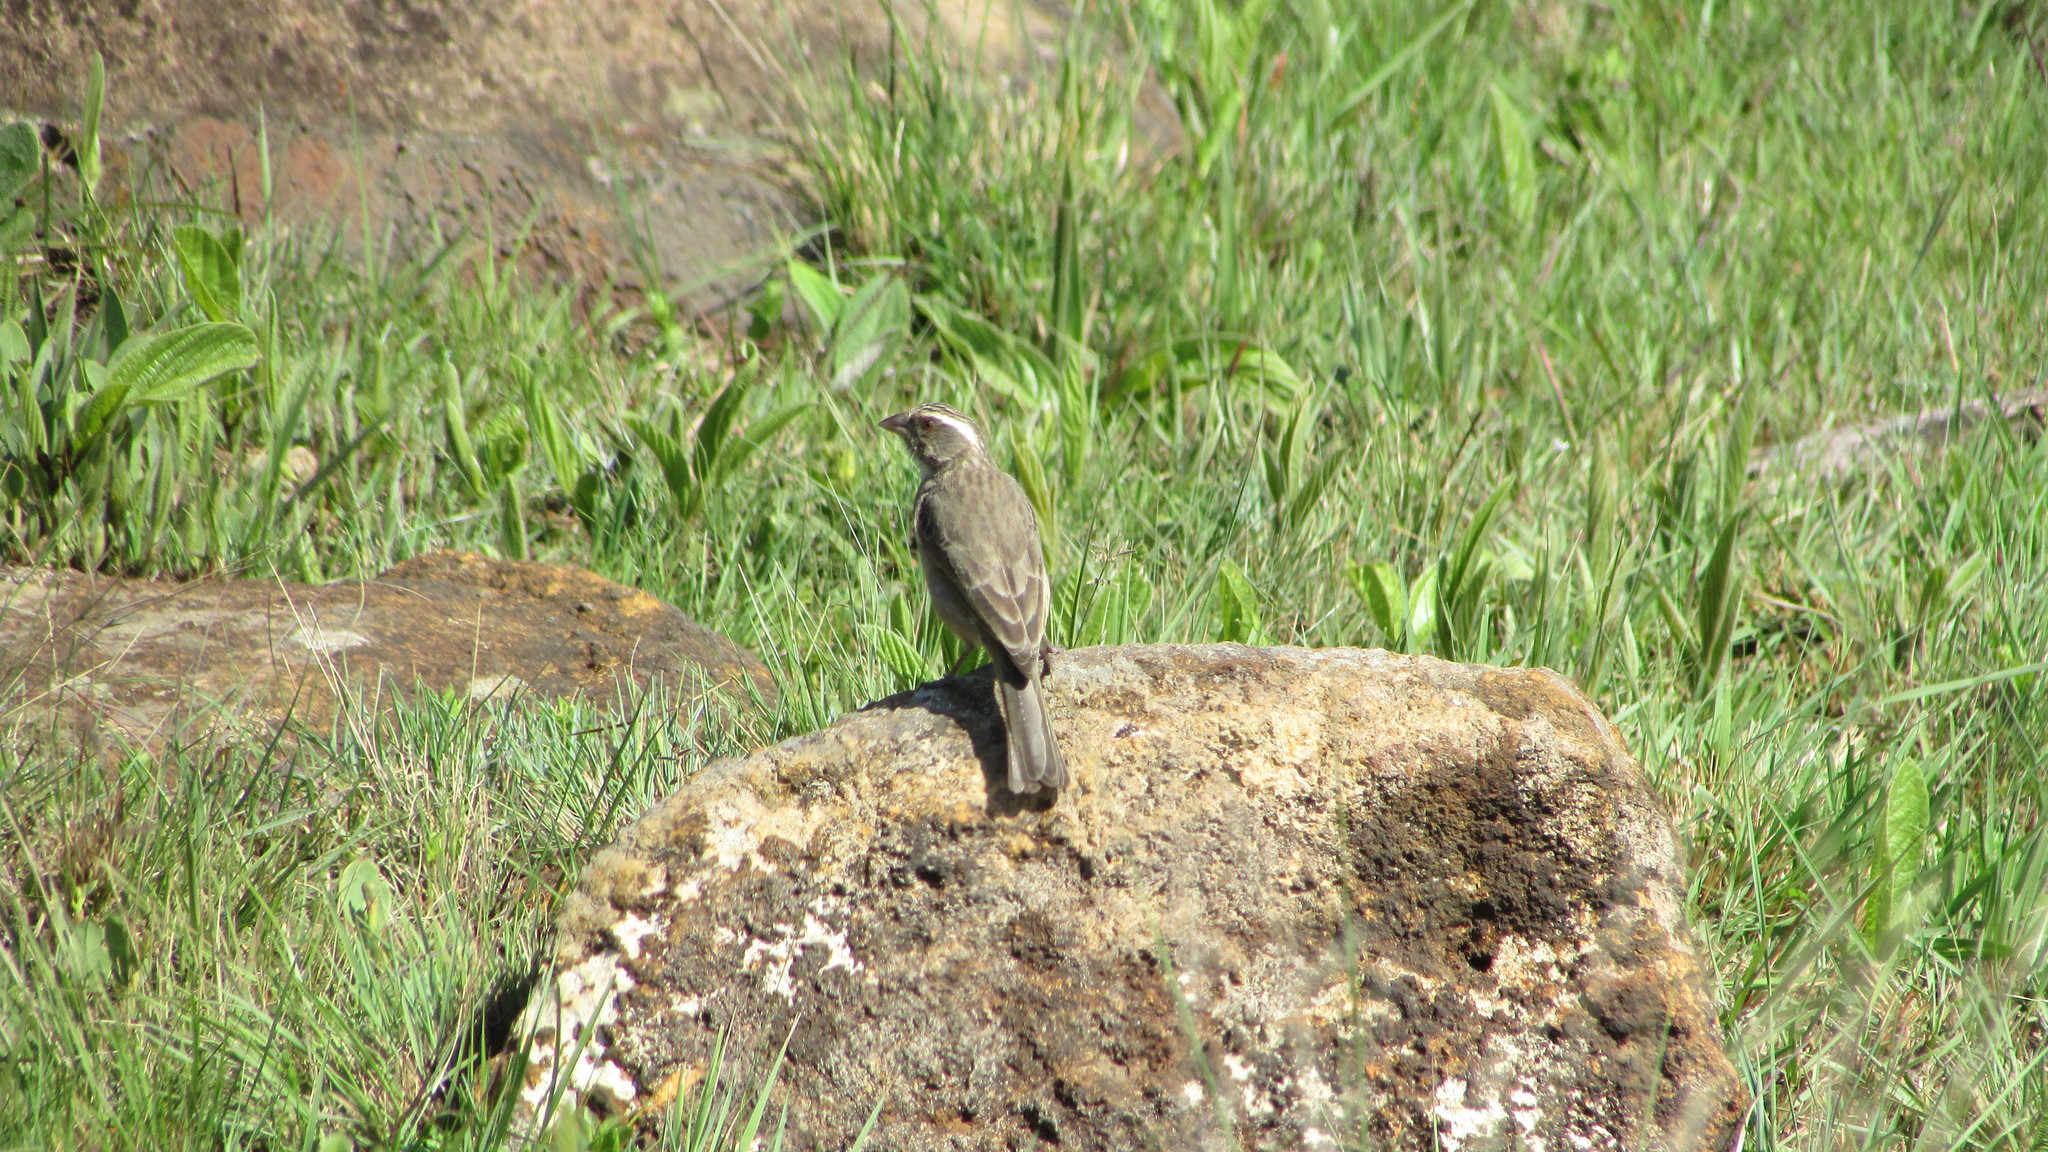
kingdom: Animalia
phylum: Chordata
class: Aves
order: Passeriformes
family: Fringillidae
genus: Crithagra
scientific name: Crithagra gularis
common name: Streaky-headed seedeater
